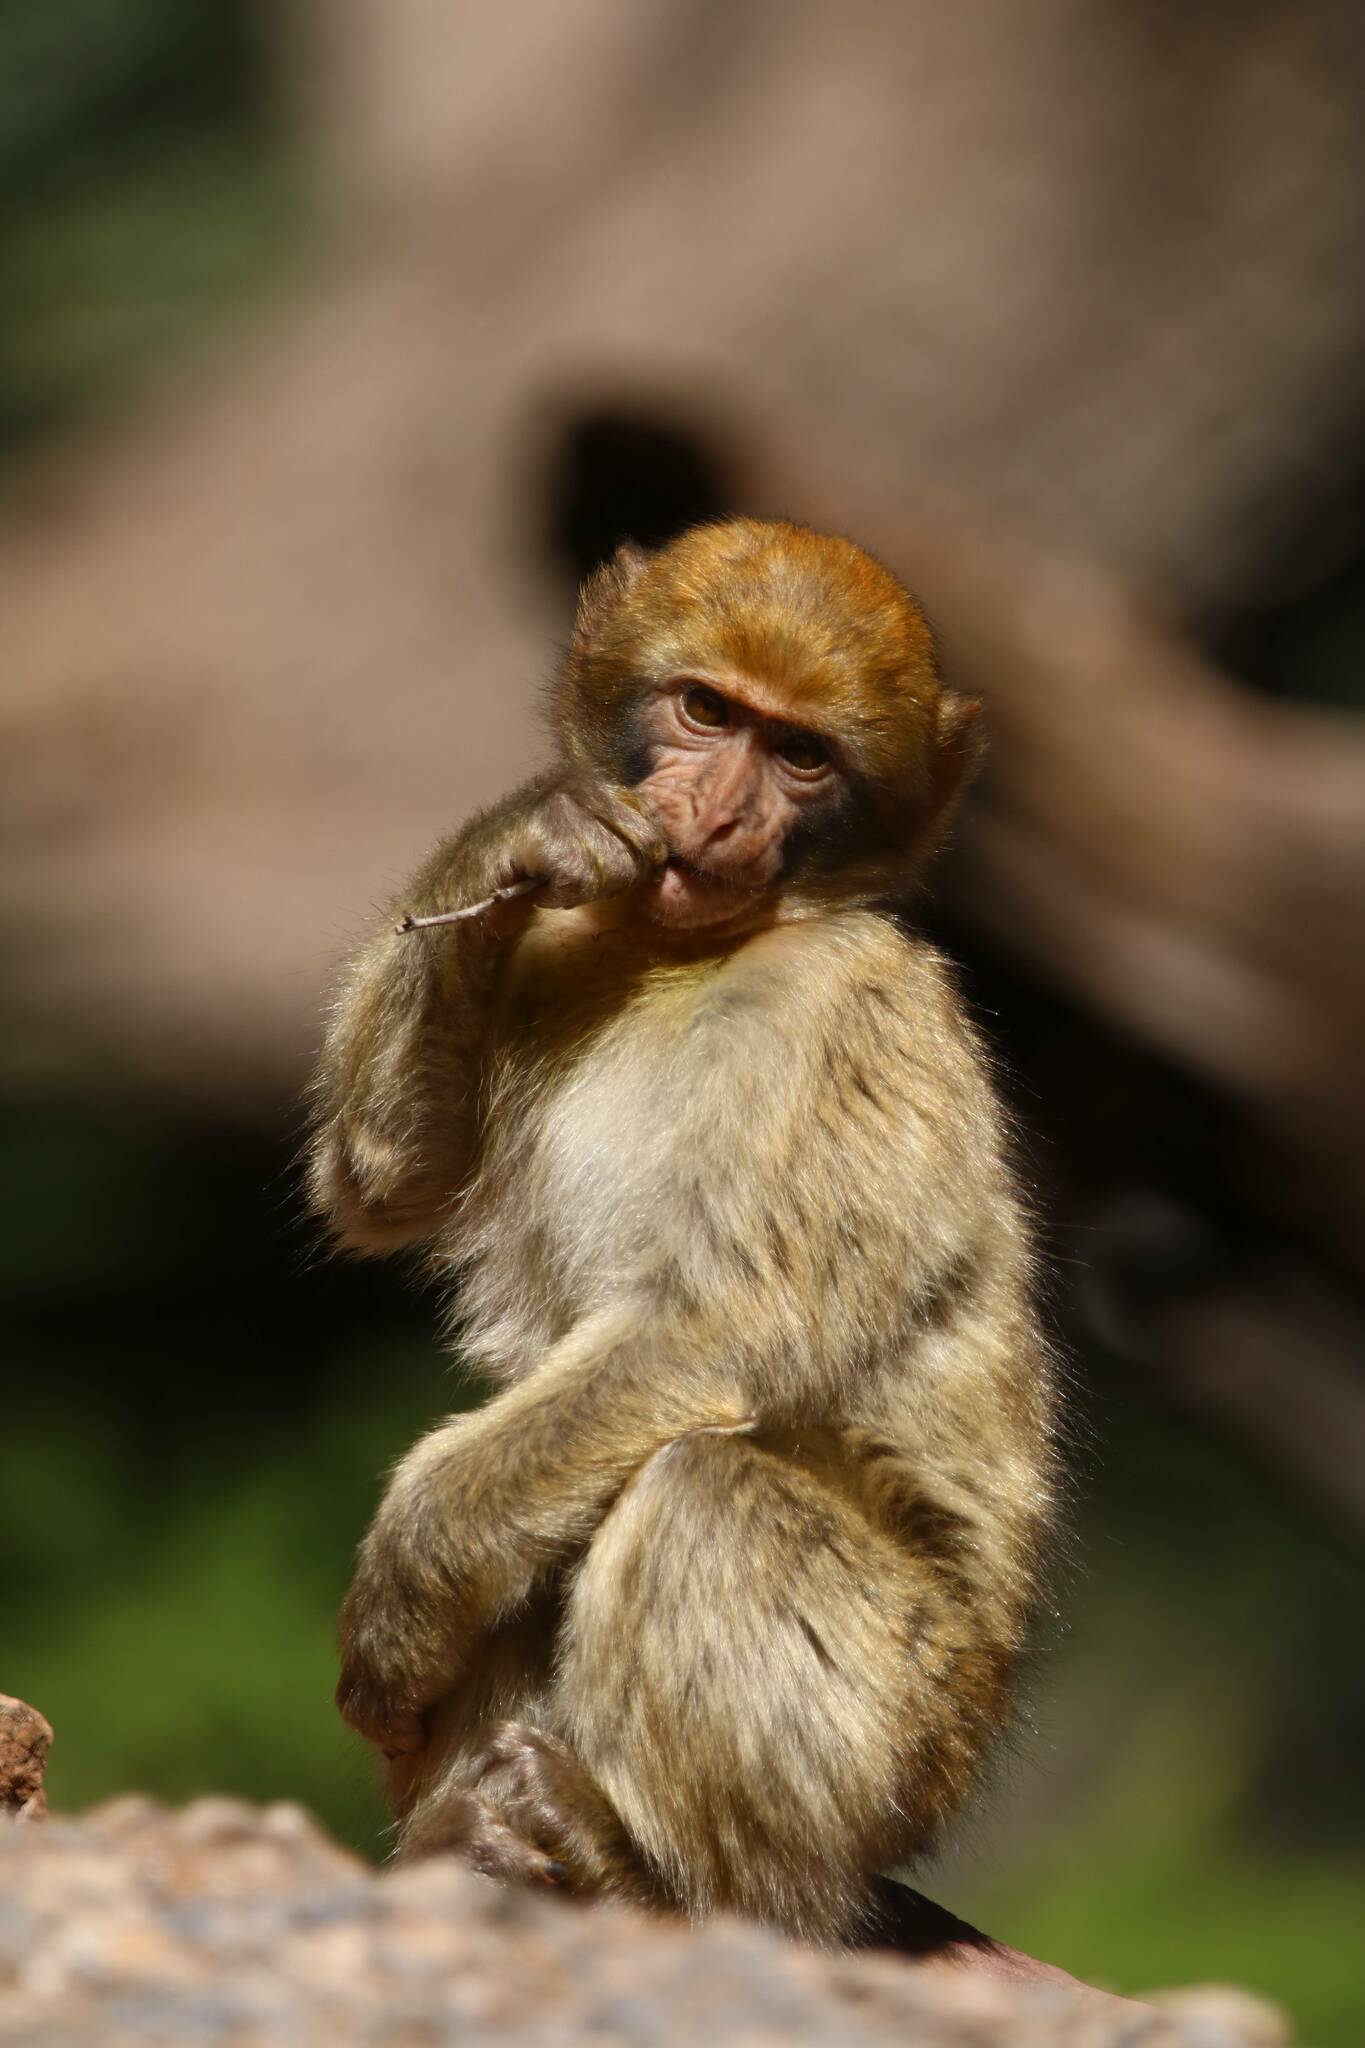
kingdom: Animalia
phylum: Chordata
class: Mammalia
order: Primates
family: Cercopithecidae
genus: Macaca
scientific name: Macaca sylvanus
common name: Barbary macaque
